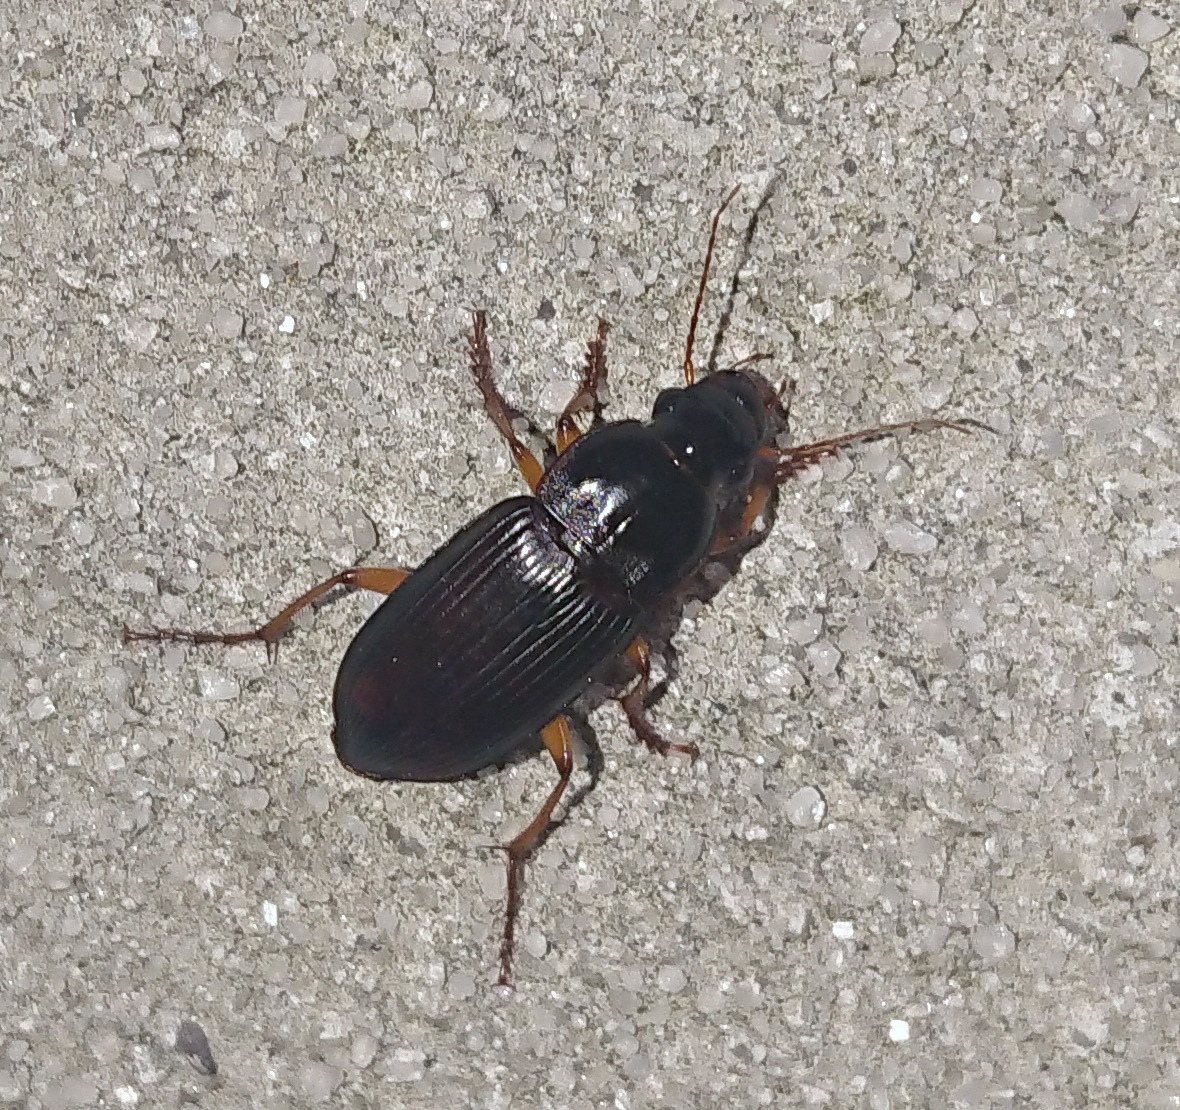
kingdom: Animalia
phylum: Arthropoda
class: Insecta
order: Coleoptera
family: Carabidae
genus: Harpalus
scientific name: Harpalus pensylvanicus
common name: Pennsylvania dingy ground beetle
